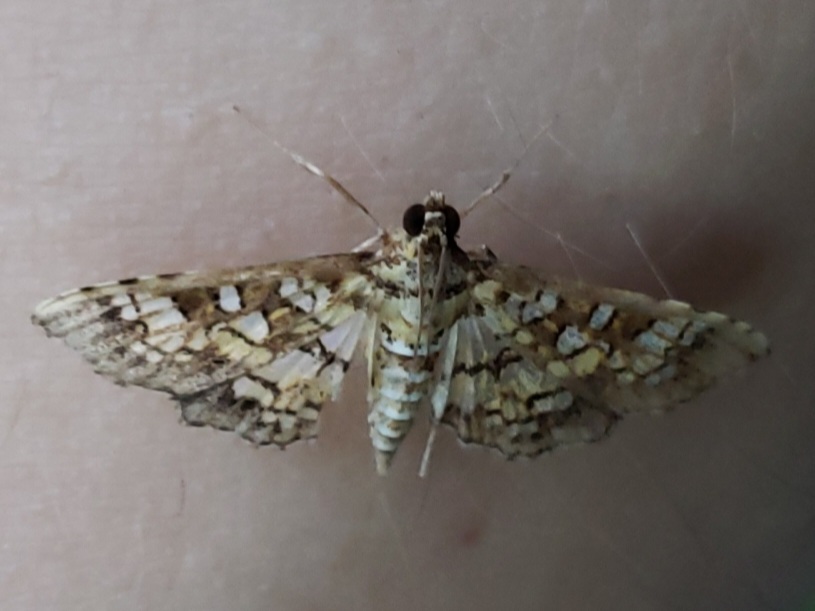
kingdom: Animalia
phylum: Arthropoda
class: Insecta
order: Lepidoptera
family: Crambidae
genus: Samea
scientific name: Samea multiplicalis
